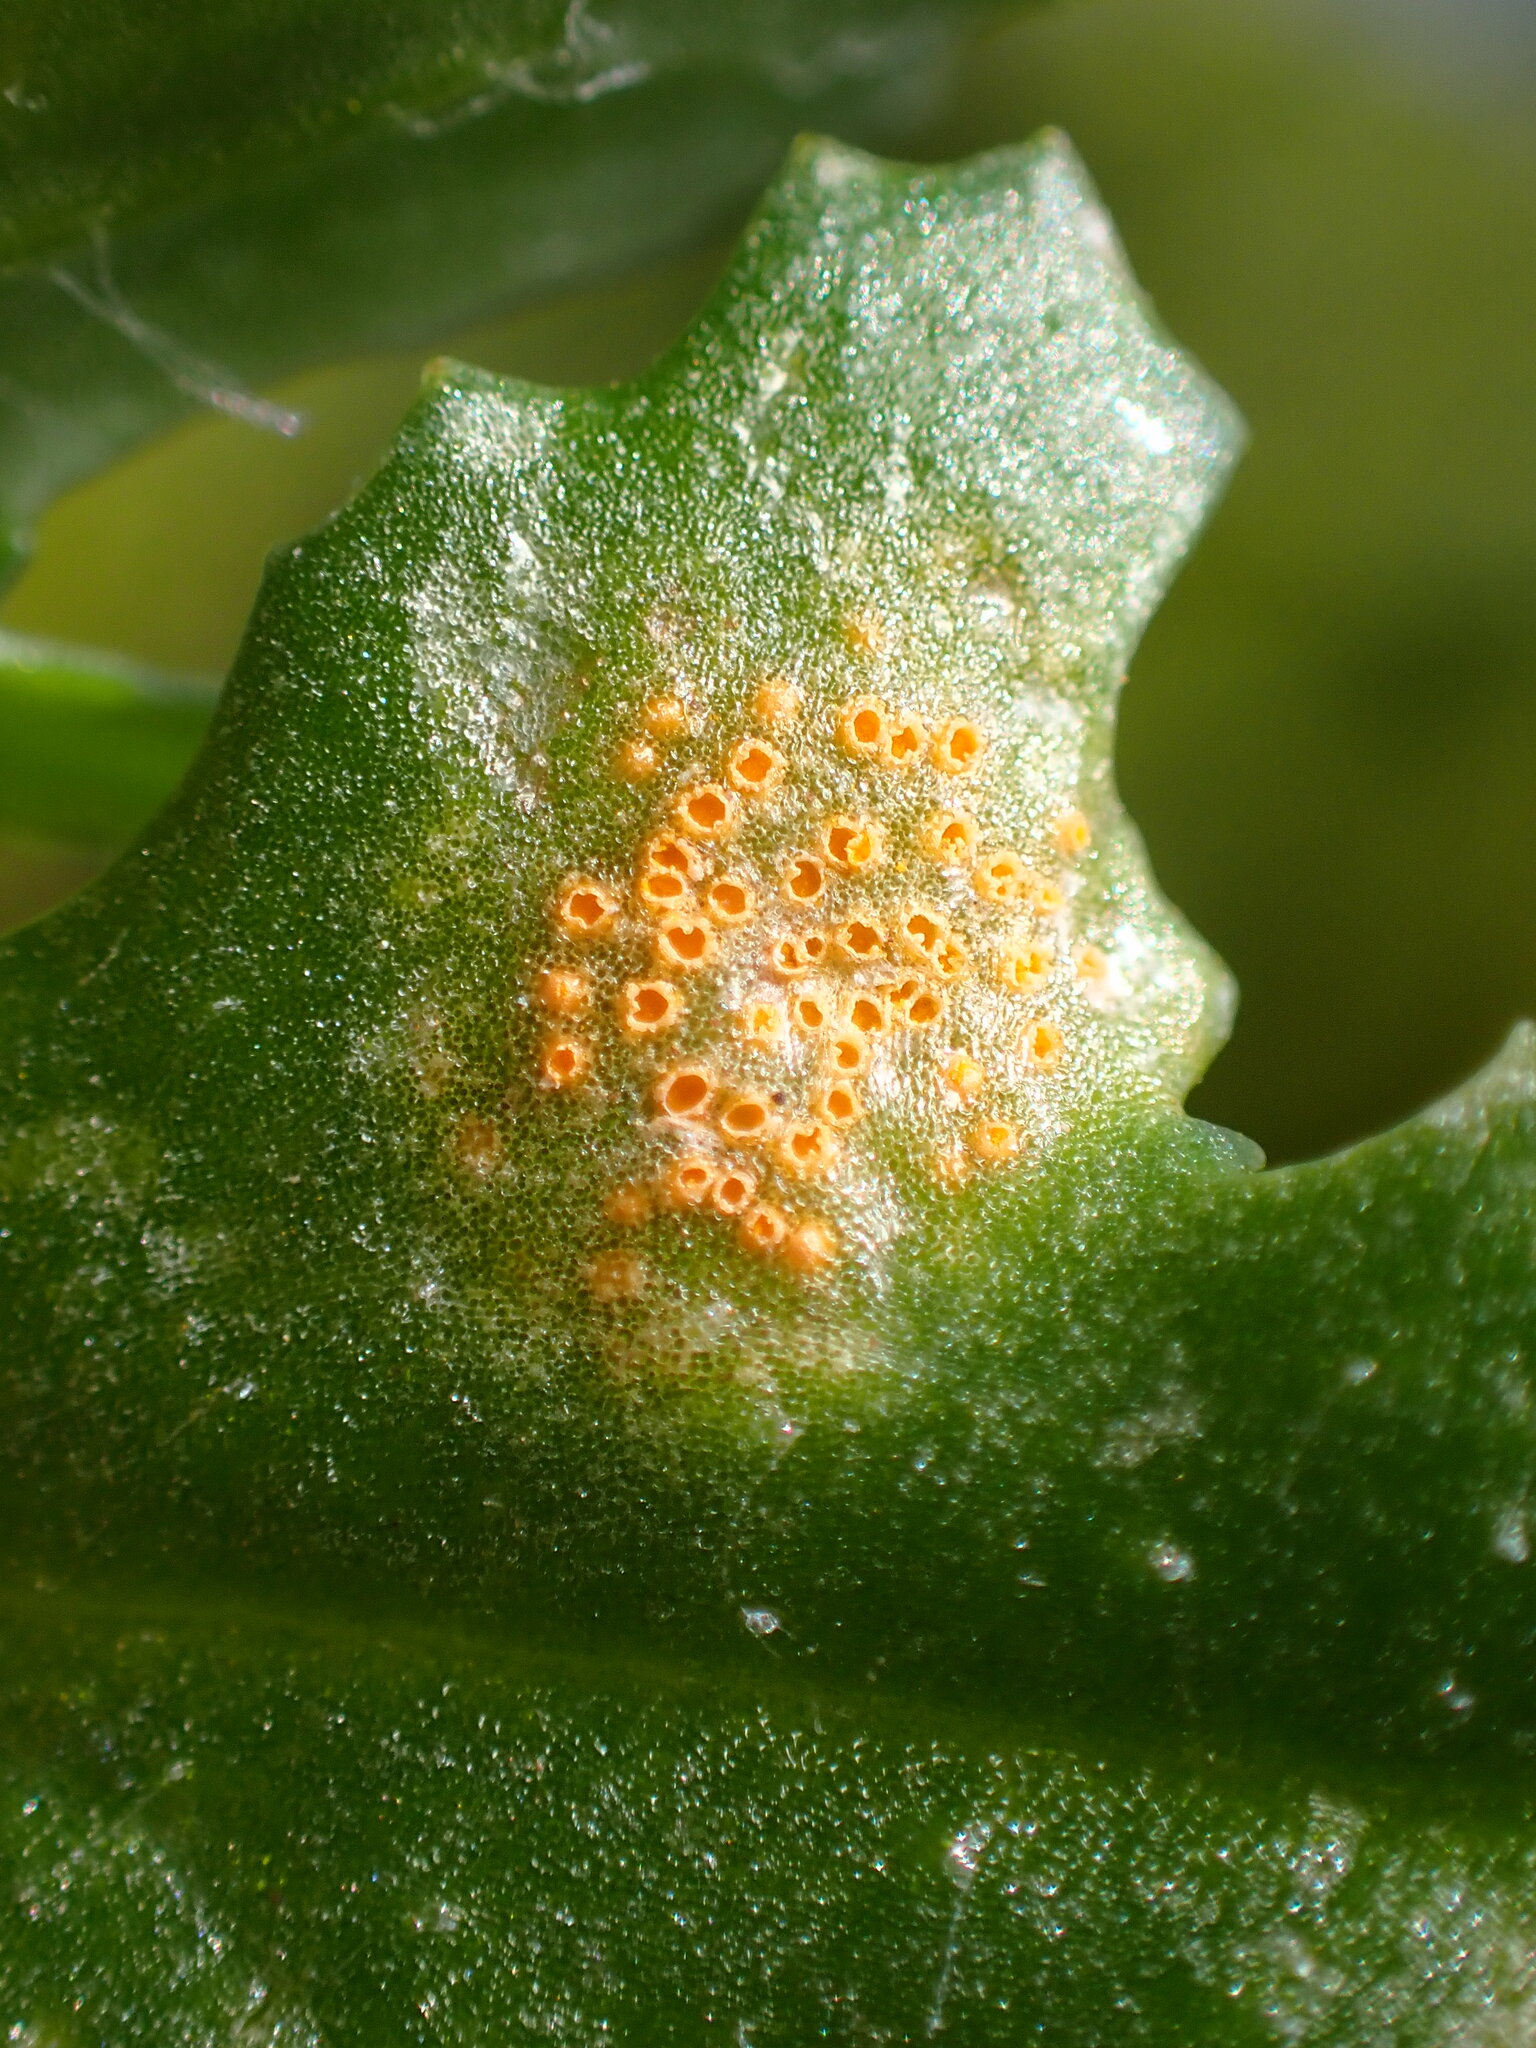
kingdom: Fungi
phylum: Basidiomycota
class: Pucciniomycetes
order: Pucciniales
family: Pucciniaceae
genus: Puccinia
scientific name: Puccinia lagenophorae
